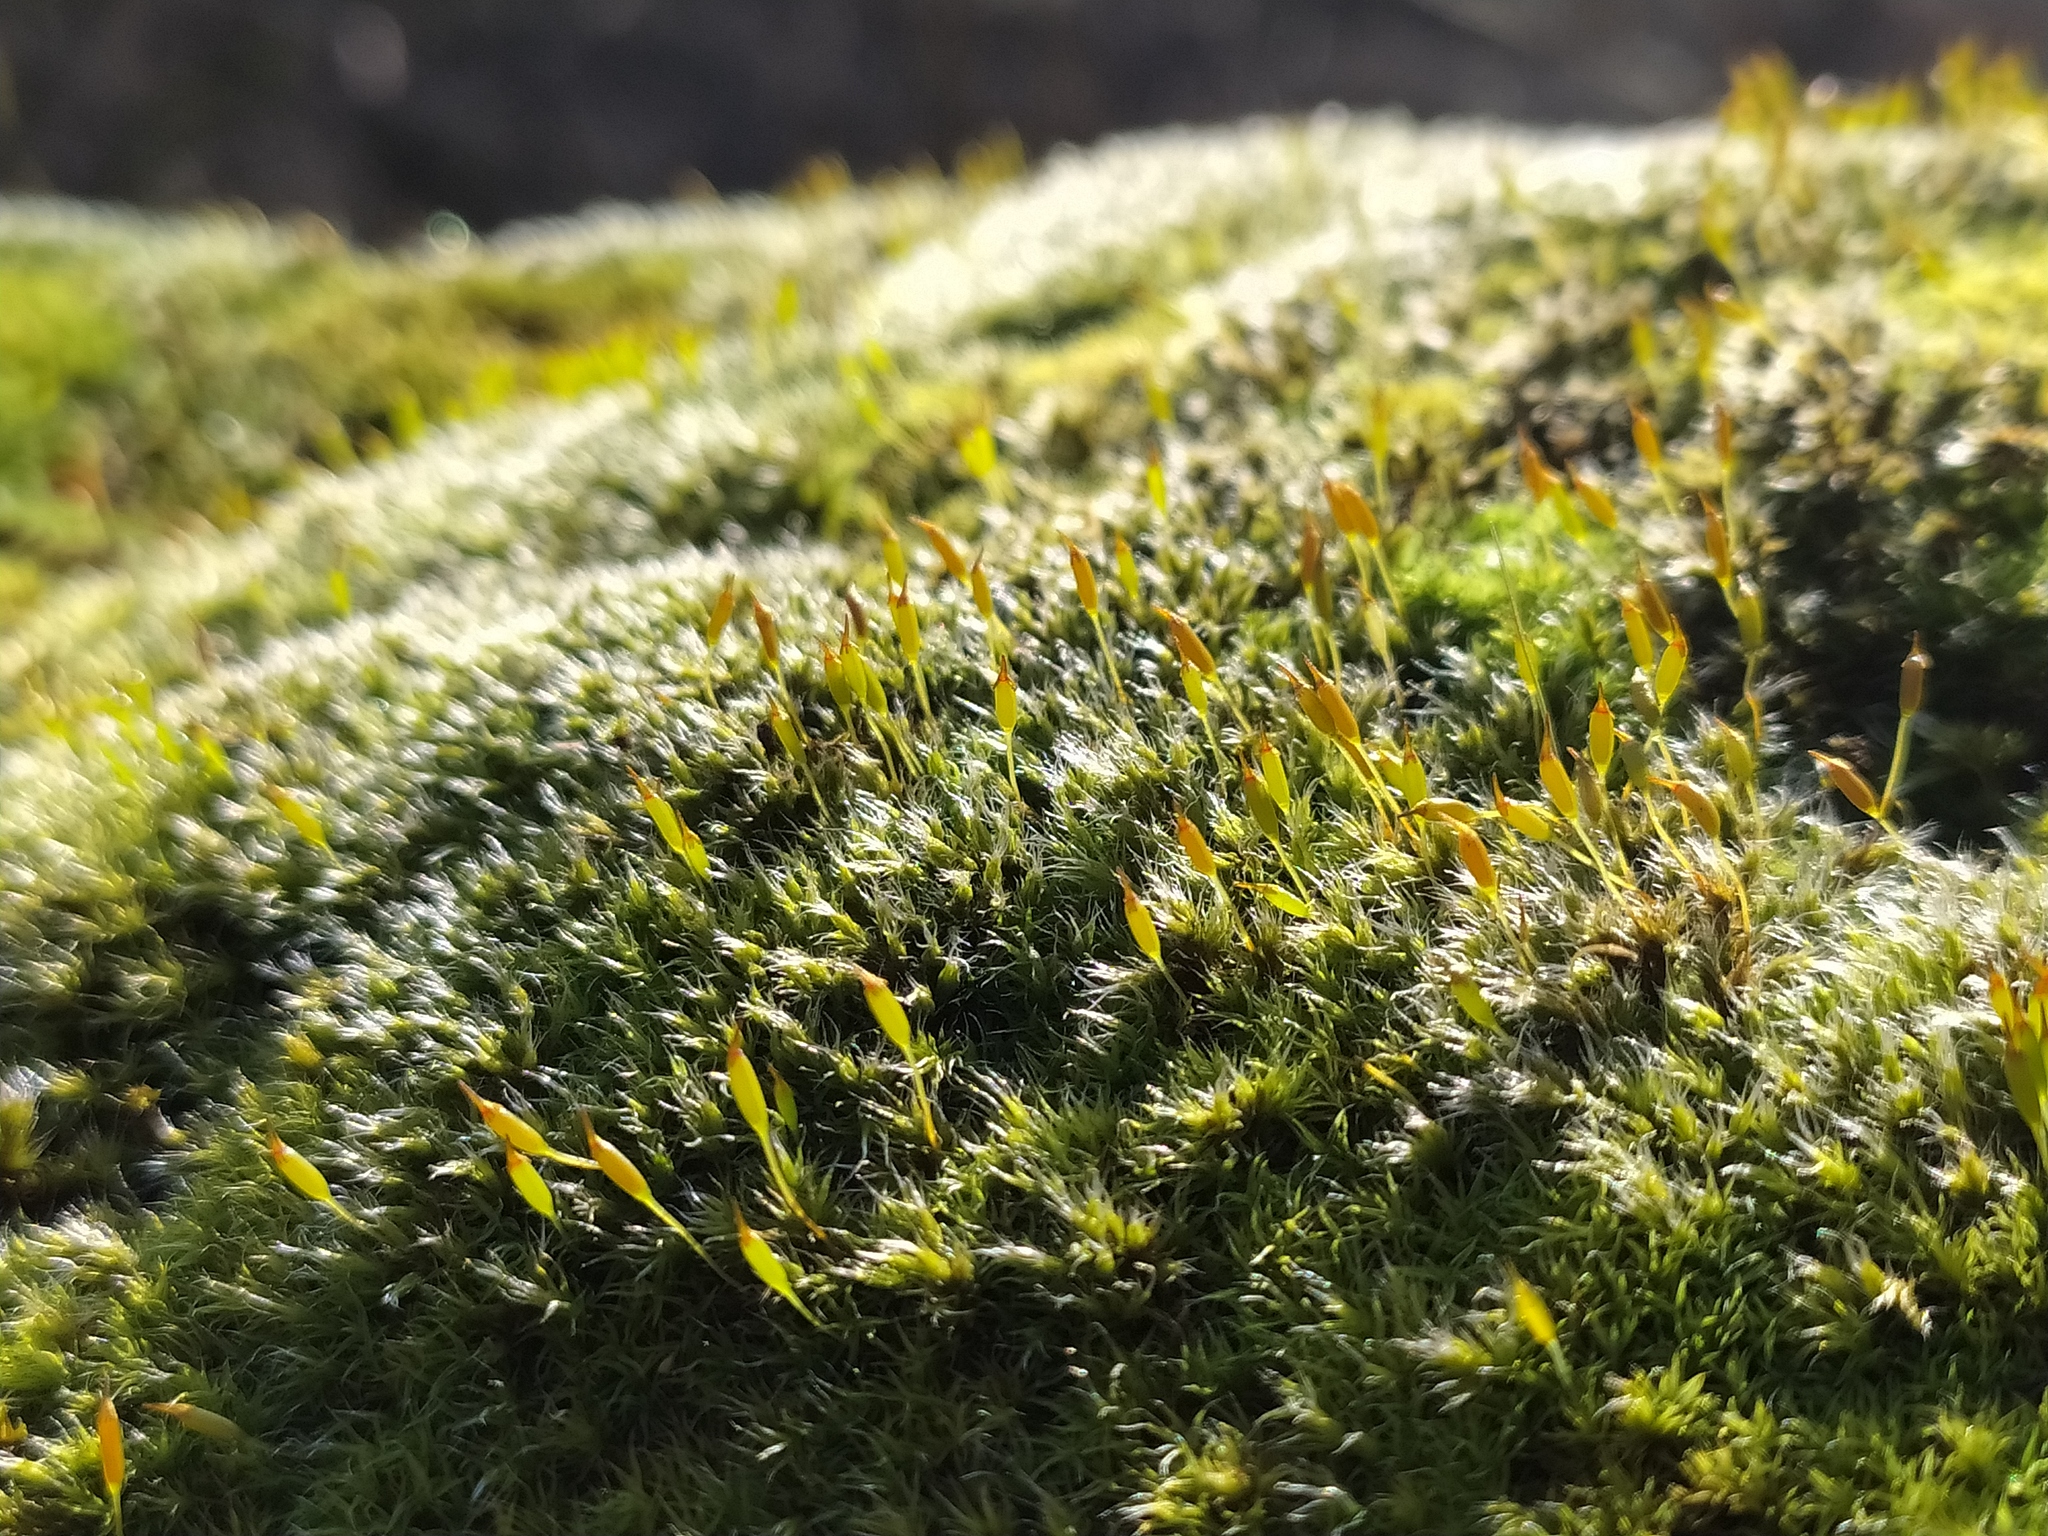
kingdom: Plantae
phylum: Bryophyta
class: Bryopsida
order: Grimmiales
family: Grimmiaceae
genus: Bucklandiella
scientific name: Bucklandiella heterosticha
